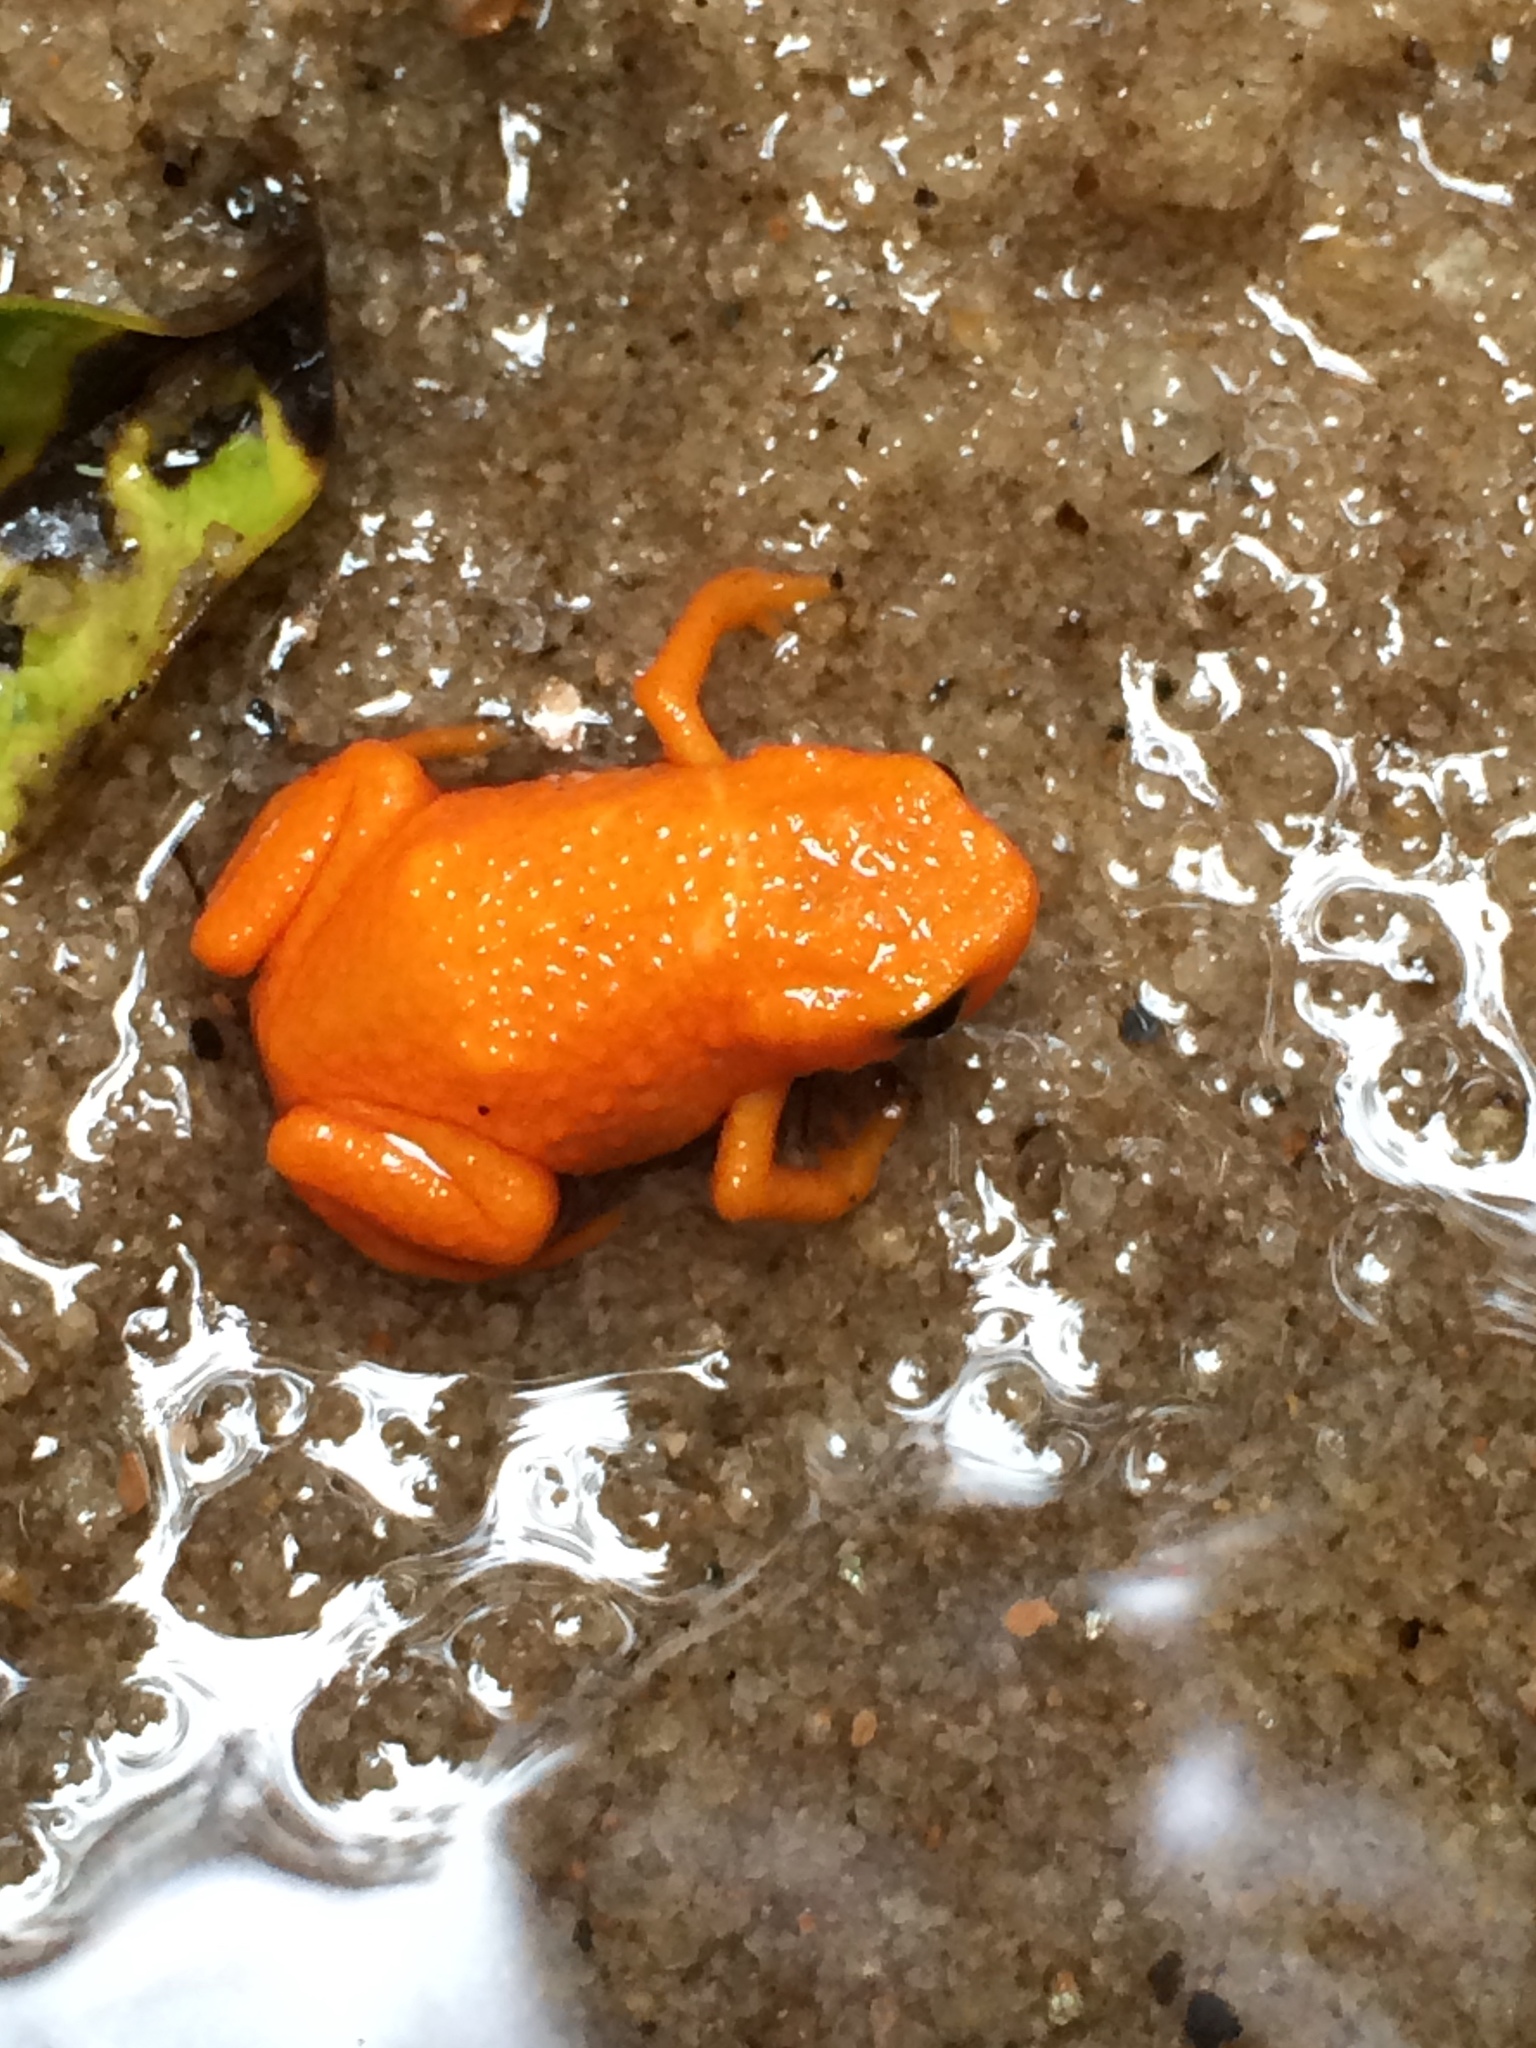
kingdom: Animalia
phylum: Chordata
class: Amphibia
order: Anura
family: Brachycephalidae
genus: Brachycephalus
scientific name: Brachycephalus alipioi
